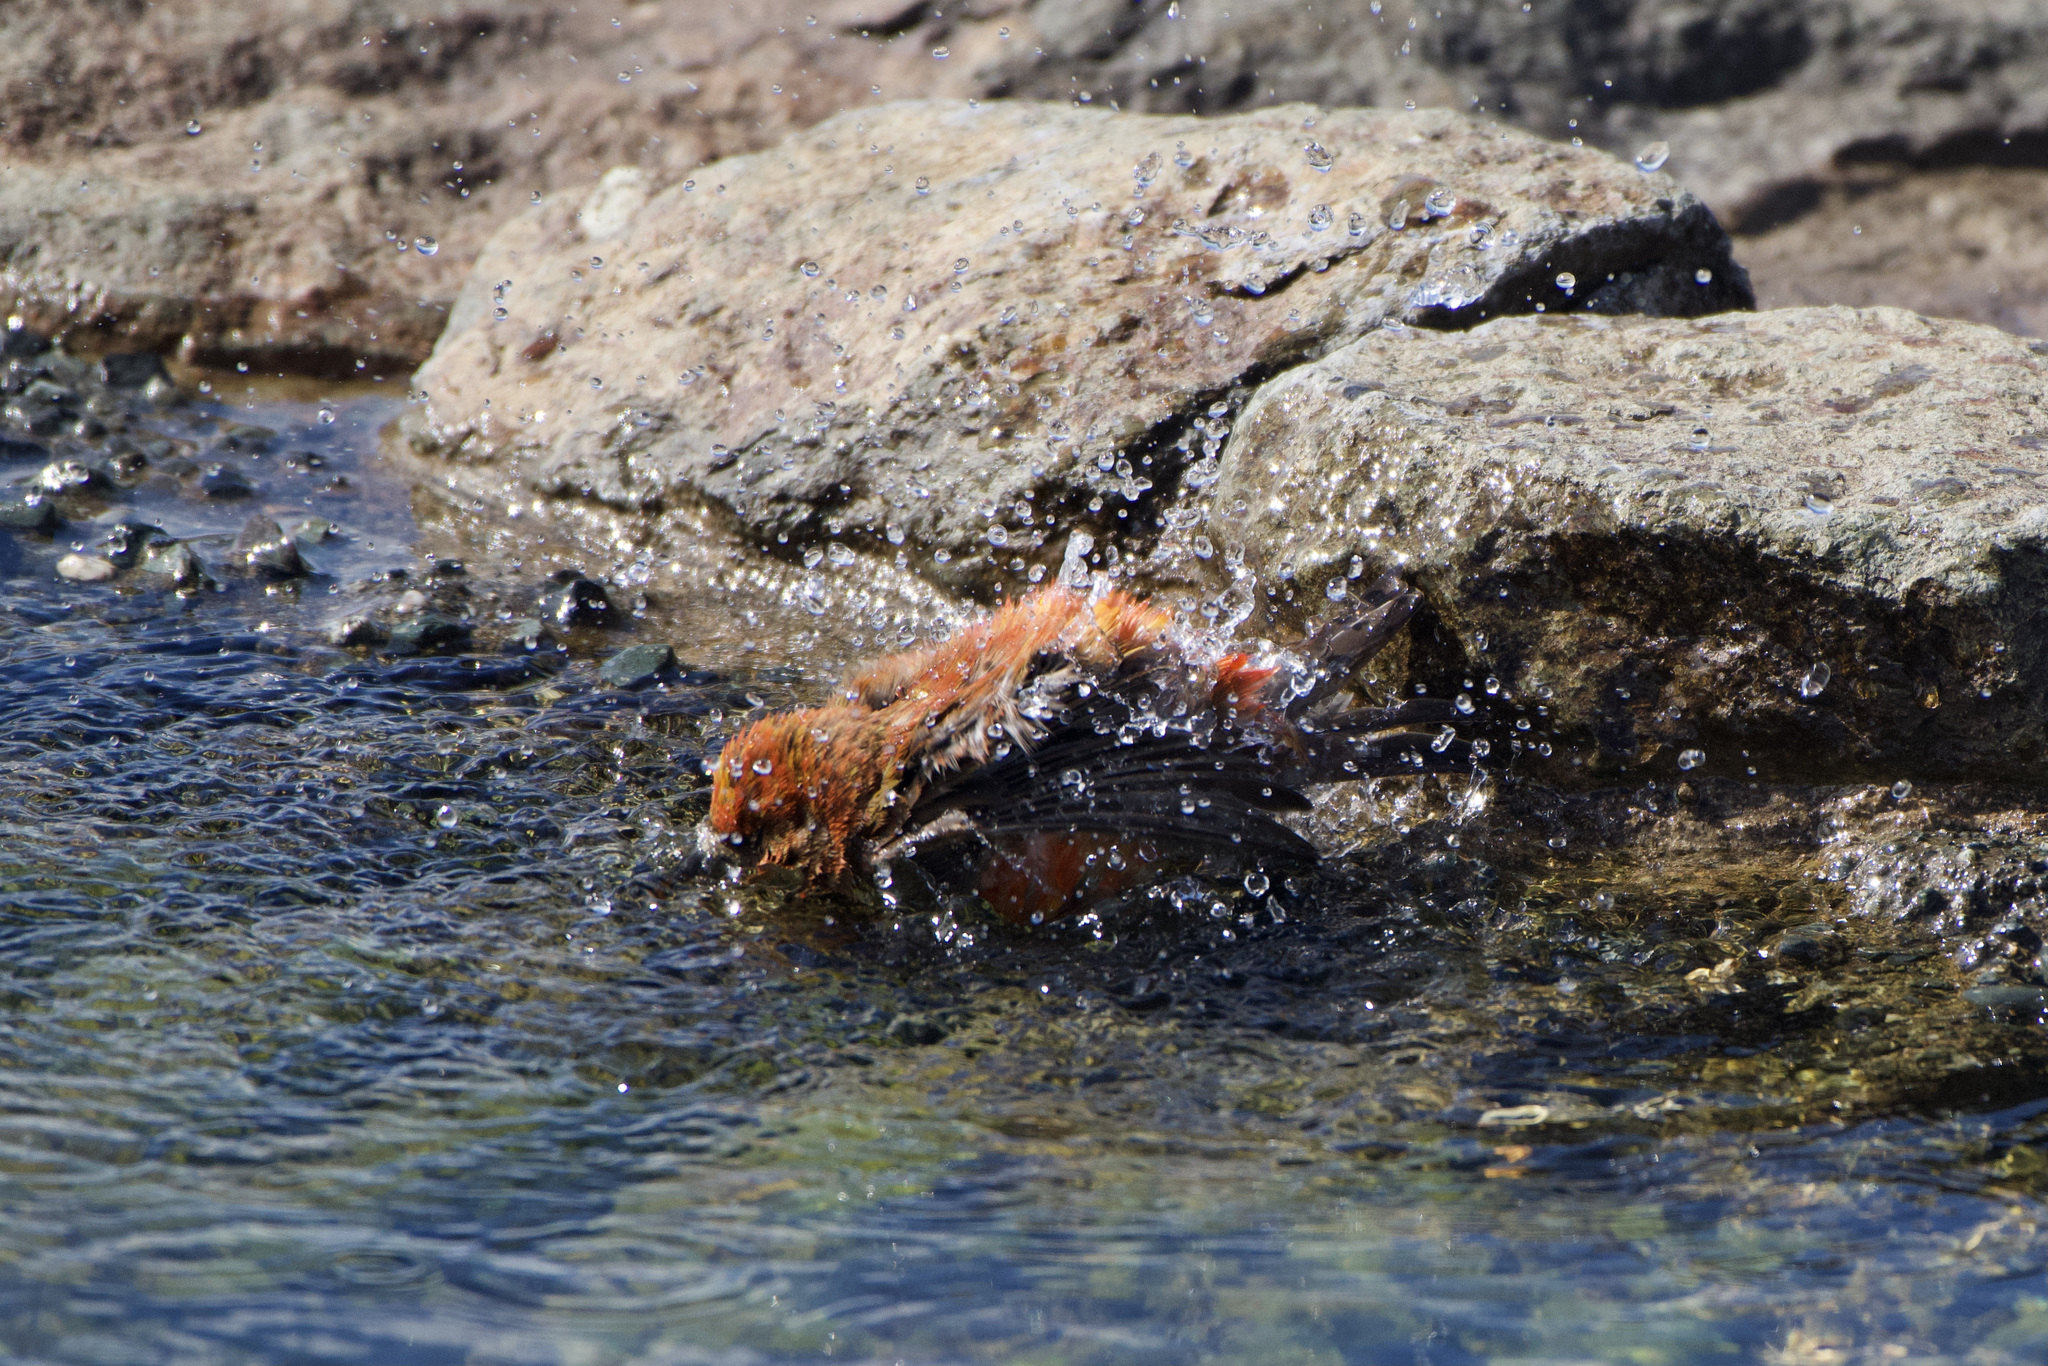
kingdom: Animalia
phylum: Chordata
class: Aves
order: Passeriformes
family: Fringillidae
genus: Loxia
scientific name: Loxia curvirostra
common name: Red crossbill
